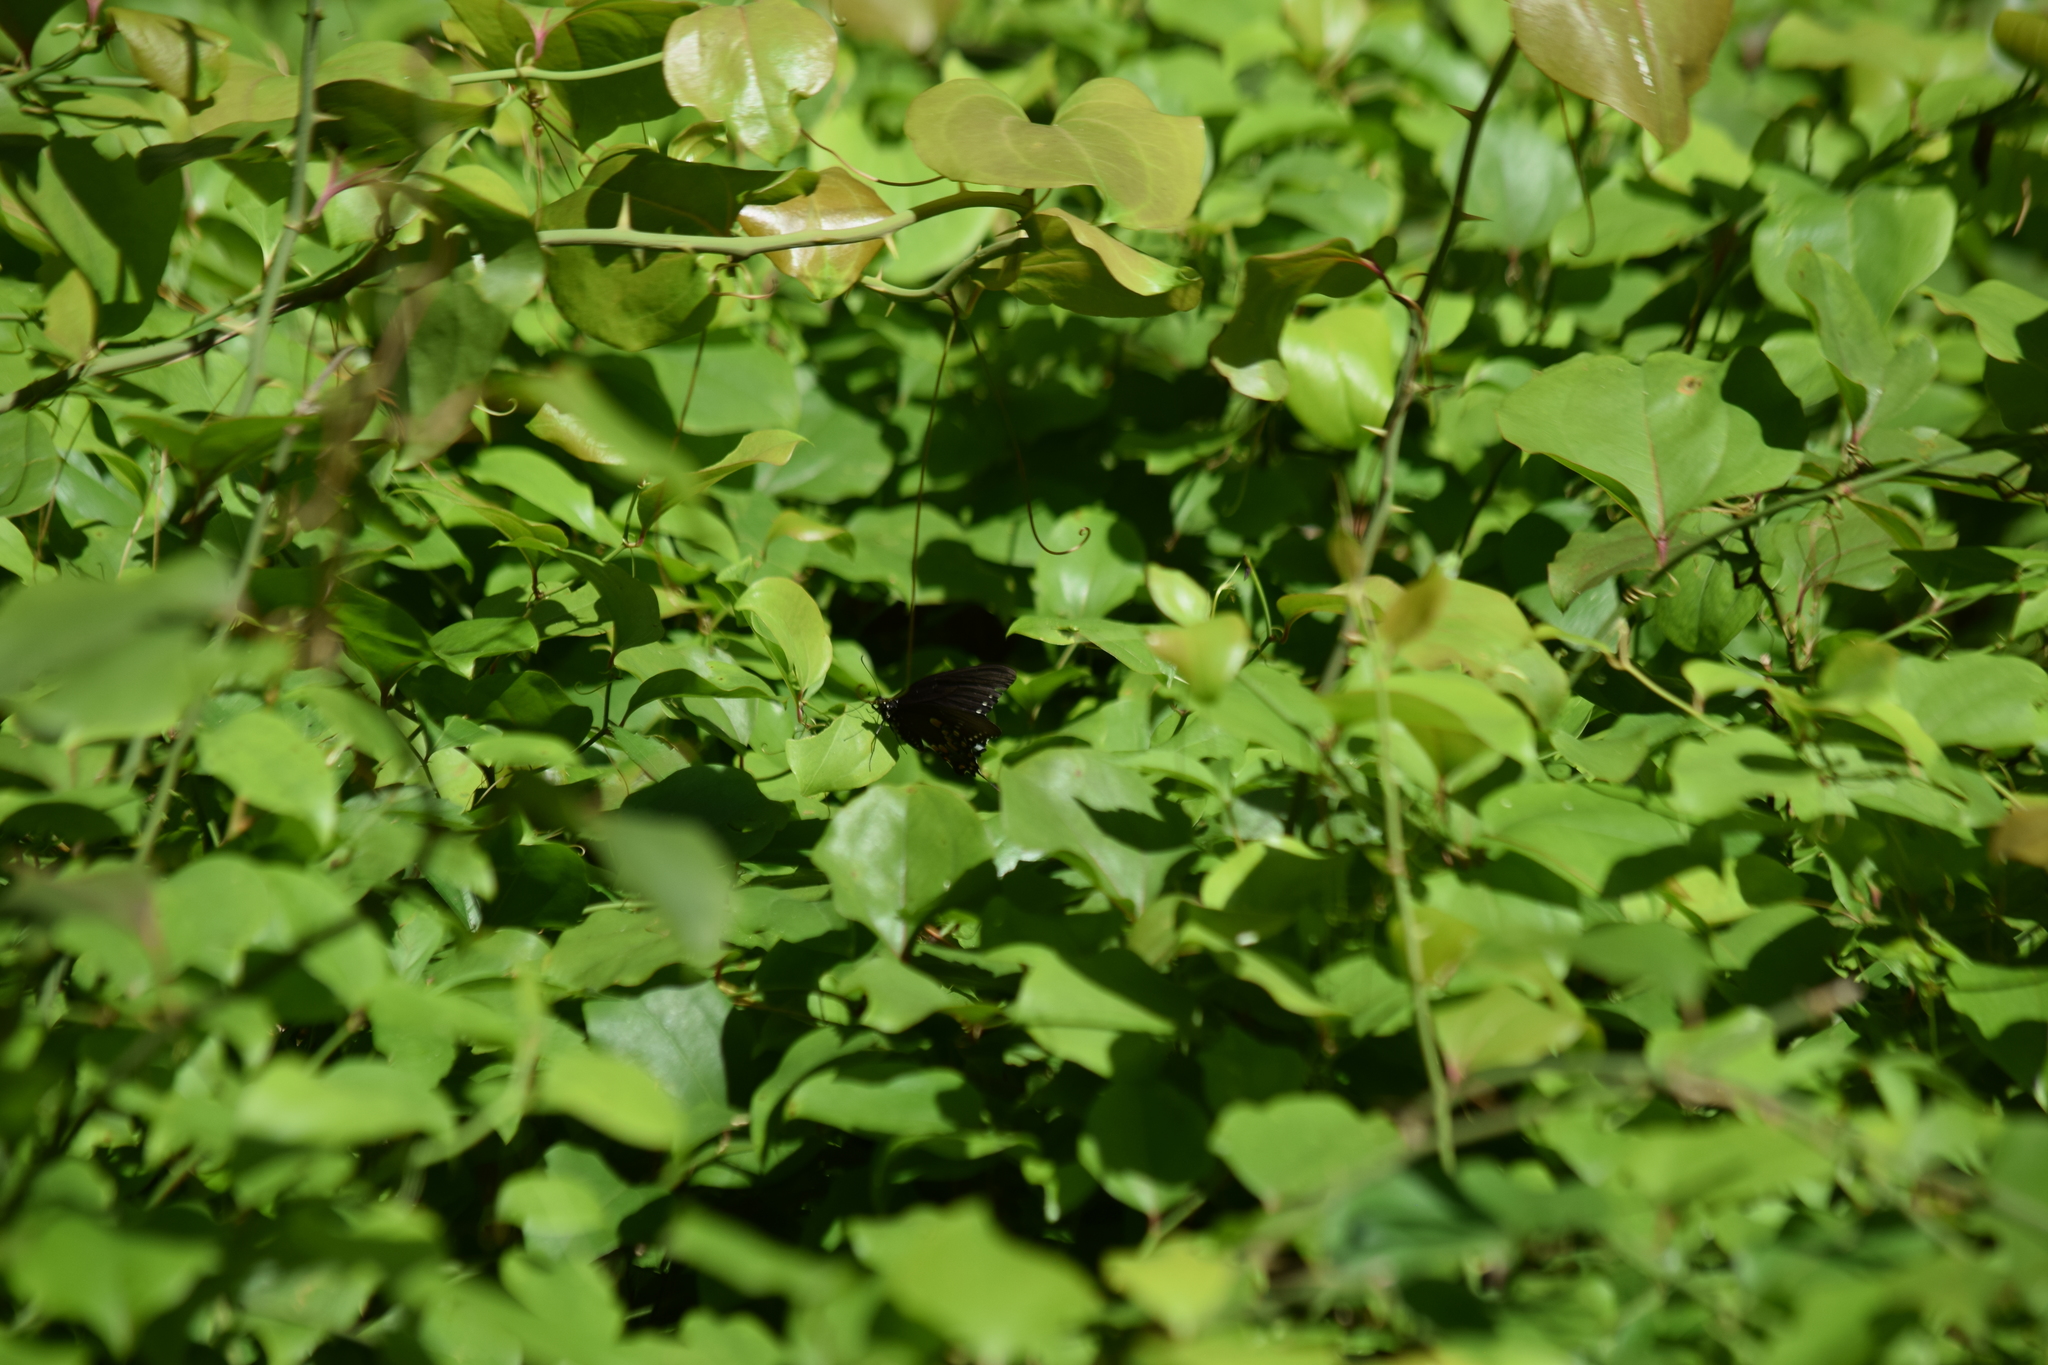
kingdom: Animalia
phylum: Arthropoda
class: Insecta
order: Lepidoptera
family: Papilionidae
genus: Papilio
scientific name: Papilio troilus
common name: Spicebush swallowtail
